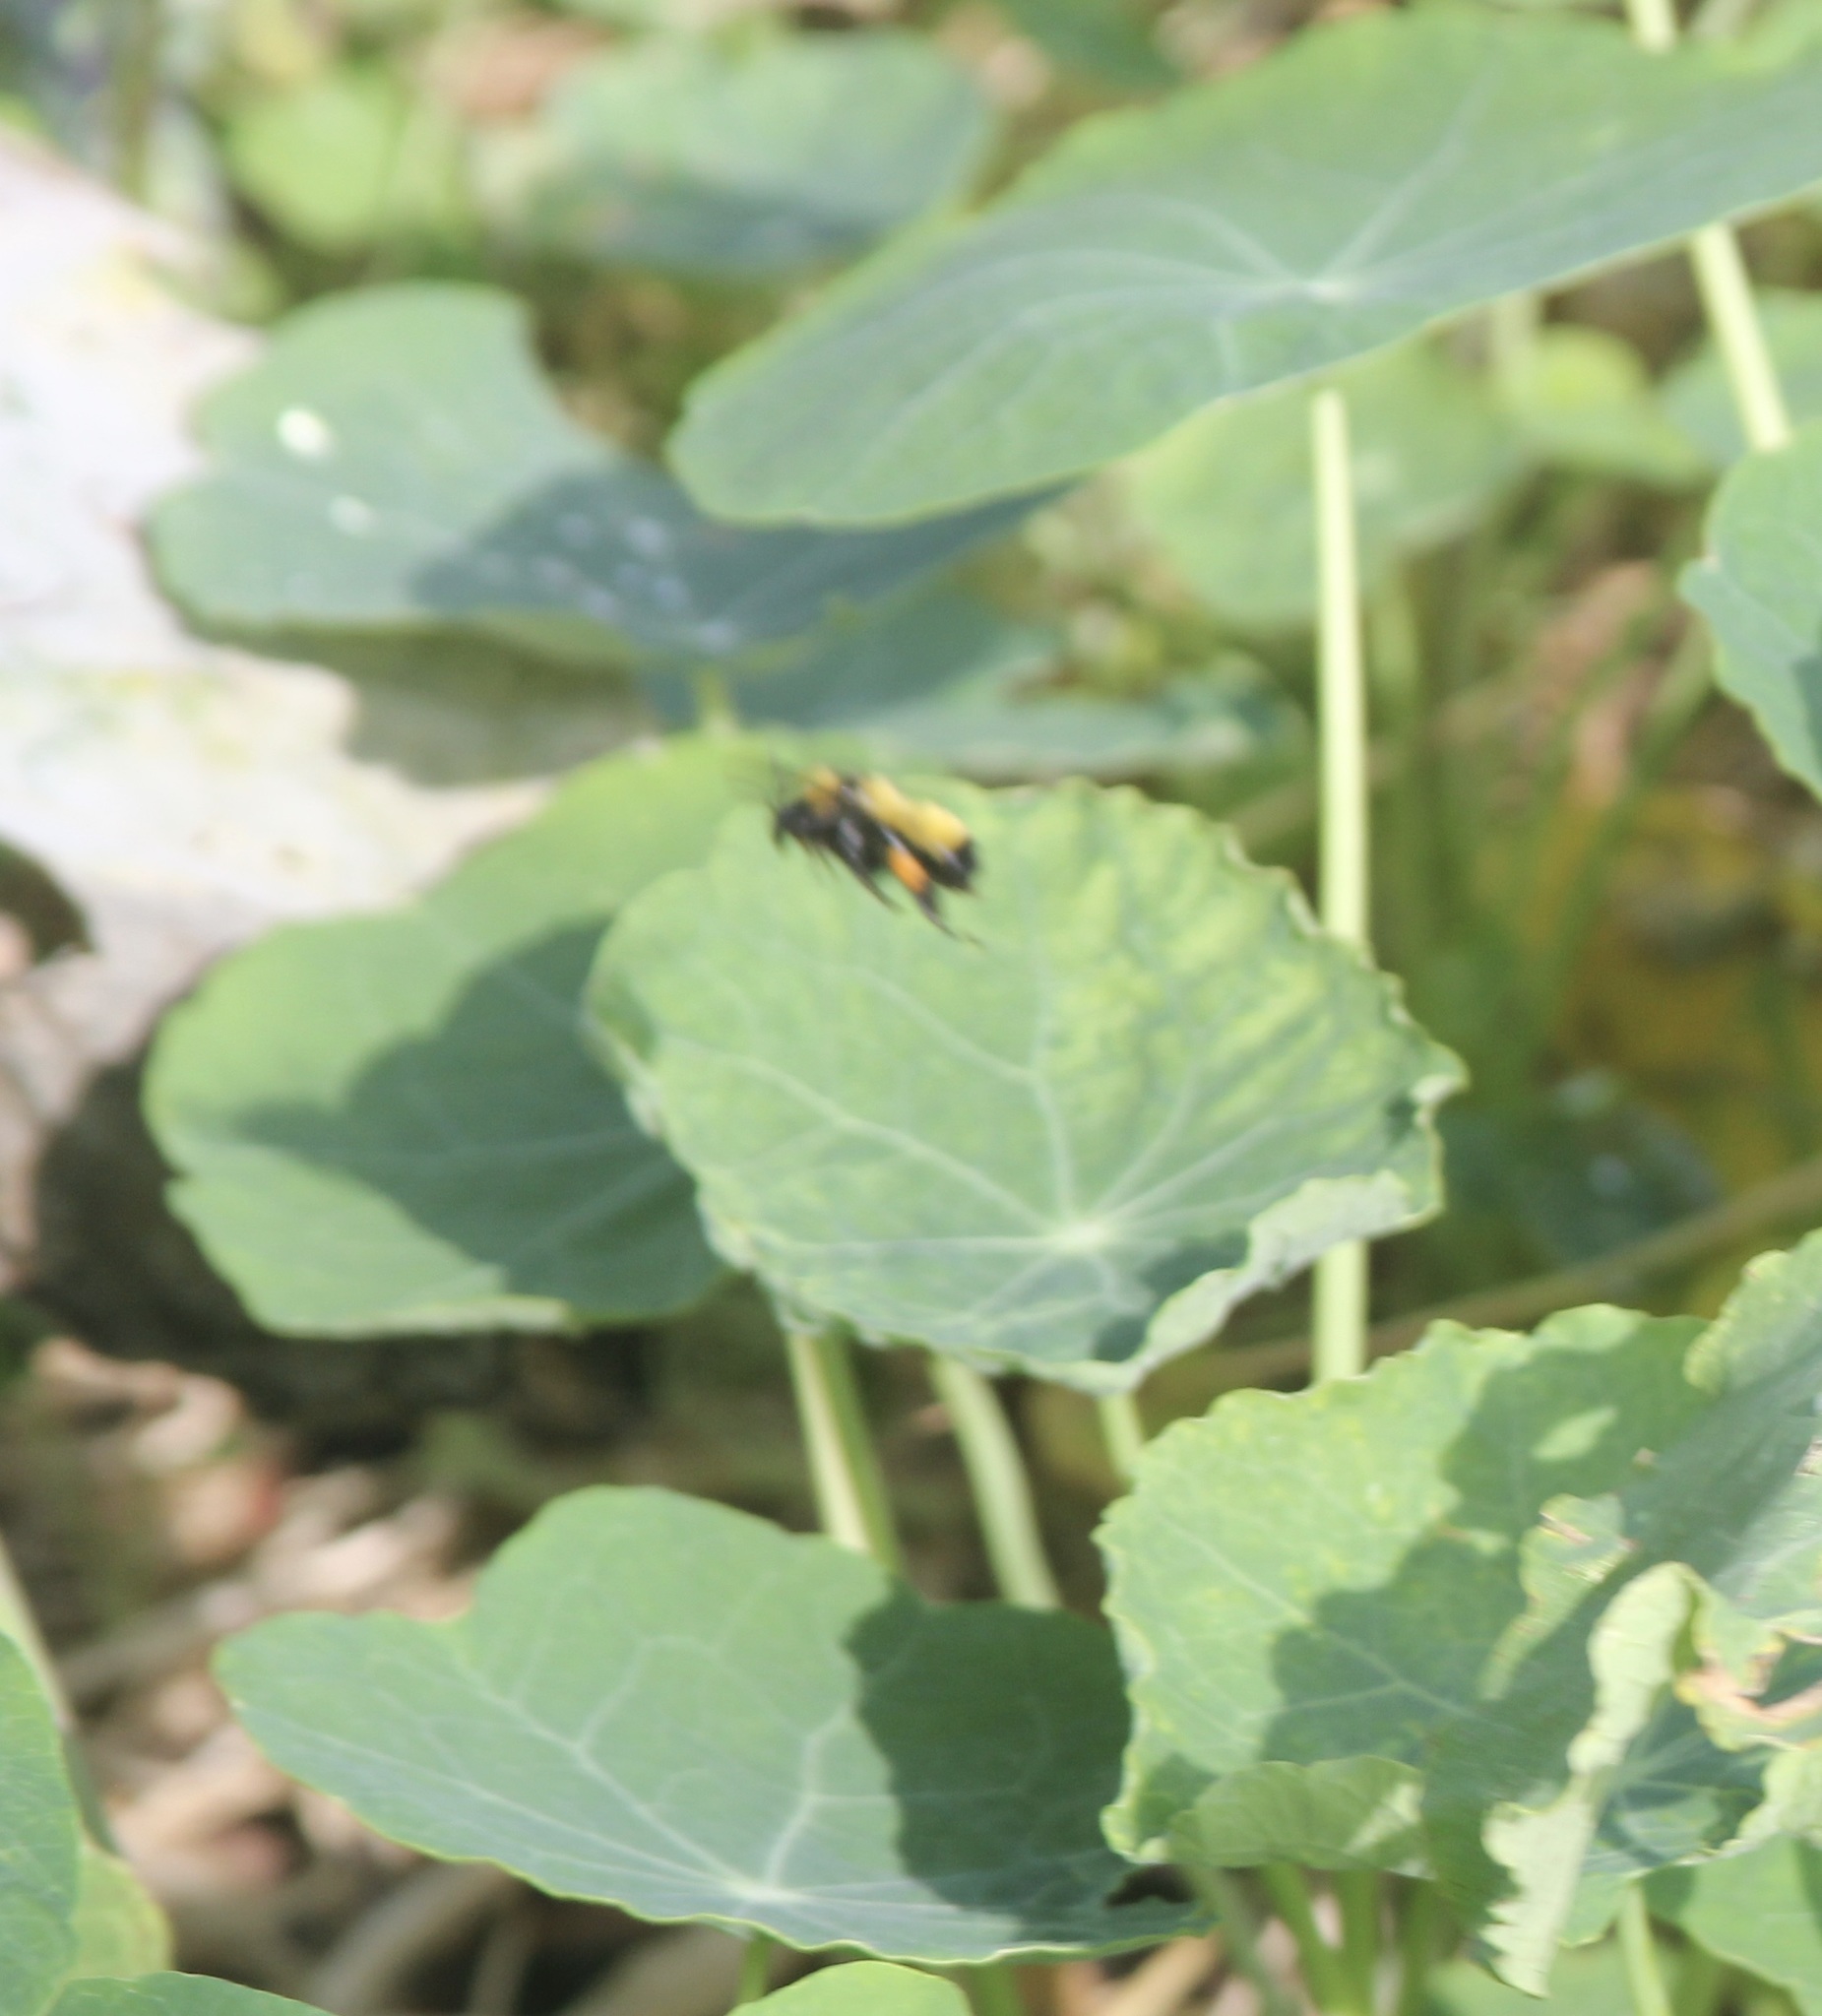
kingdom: Animalia
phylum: Arthropoda
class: Insecta
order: Hymenoptera
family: Apidae
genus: Bombus
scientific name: Bombus sonorus
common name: Sonoran bumble bee
